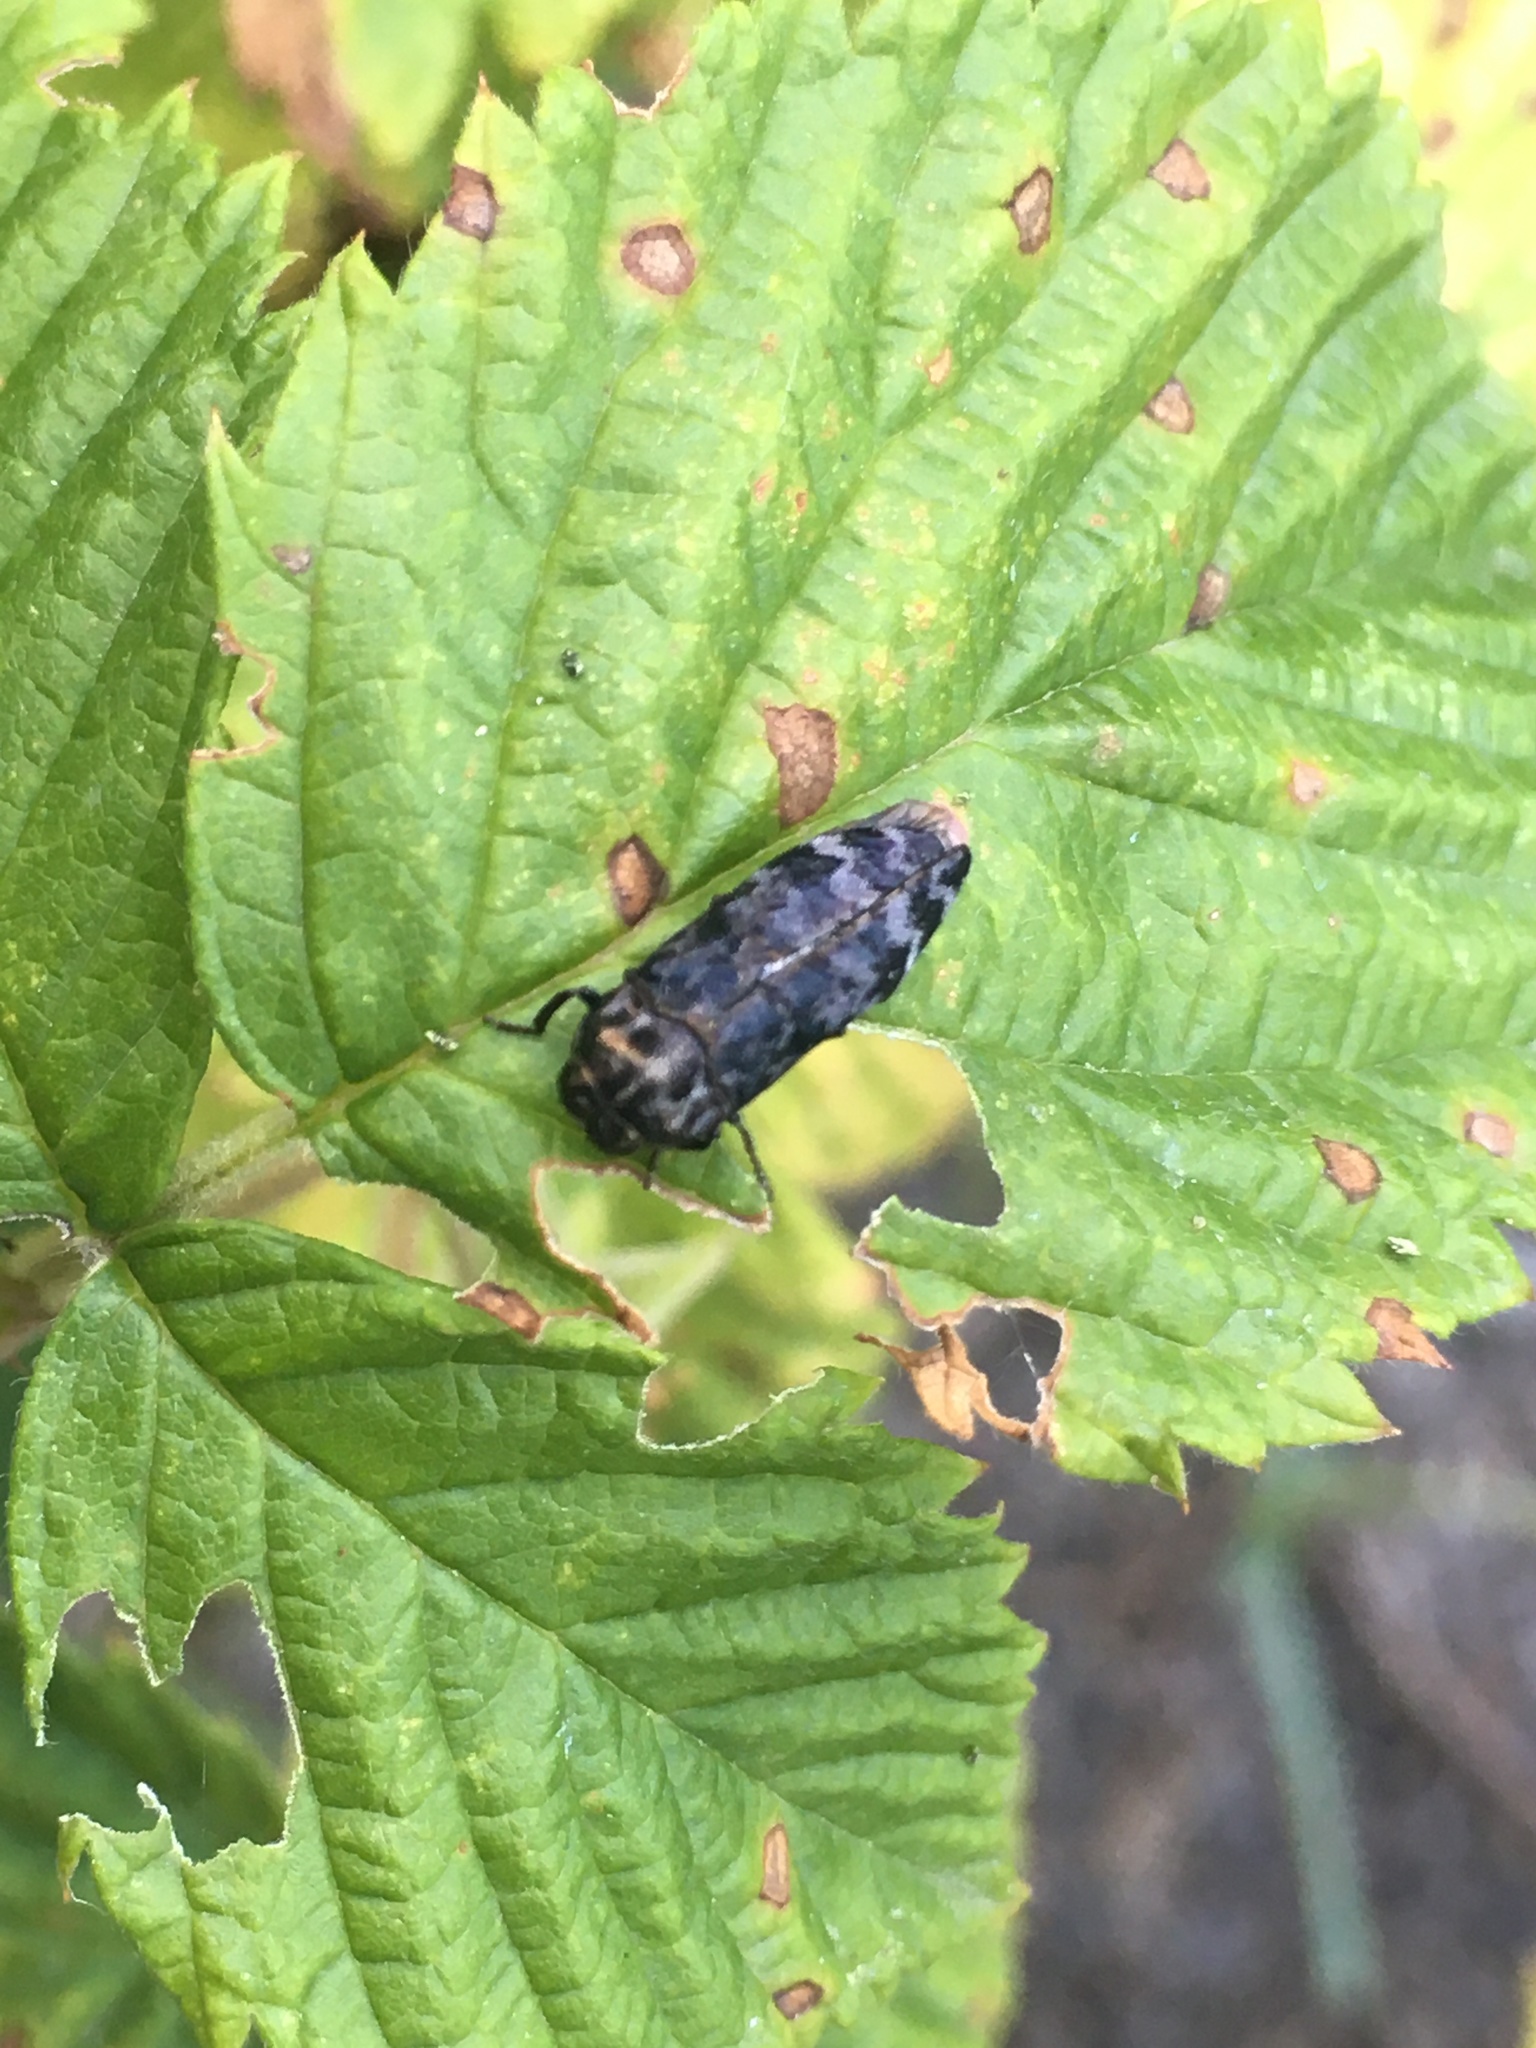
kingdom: Animalia
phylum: Arthropoda
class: Insecta
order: Coleoptera
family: Buprestidae
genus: Coraebus
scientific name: Coraebus rubi
